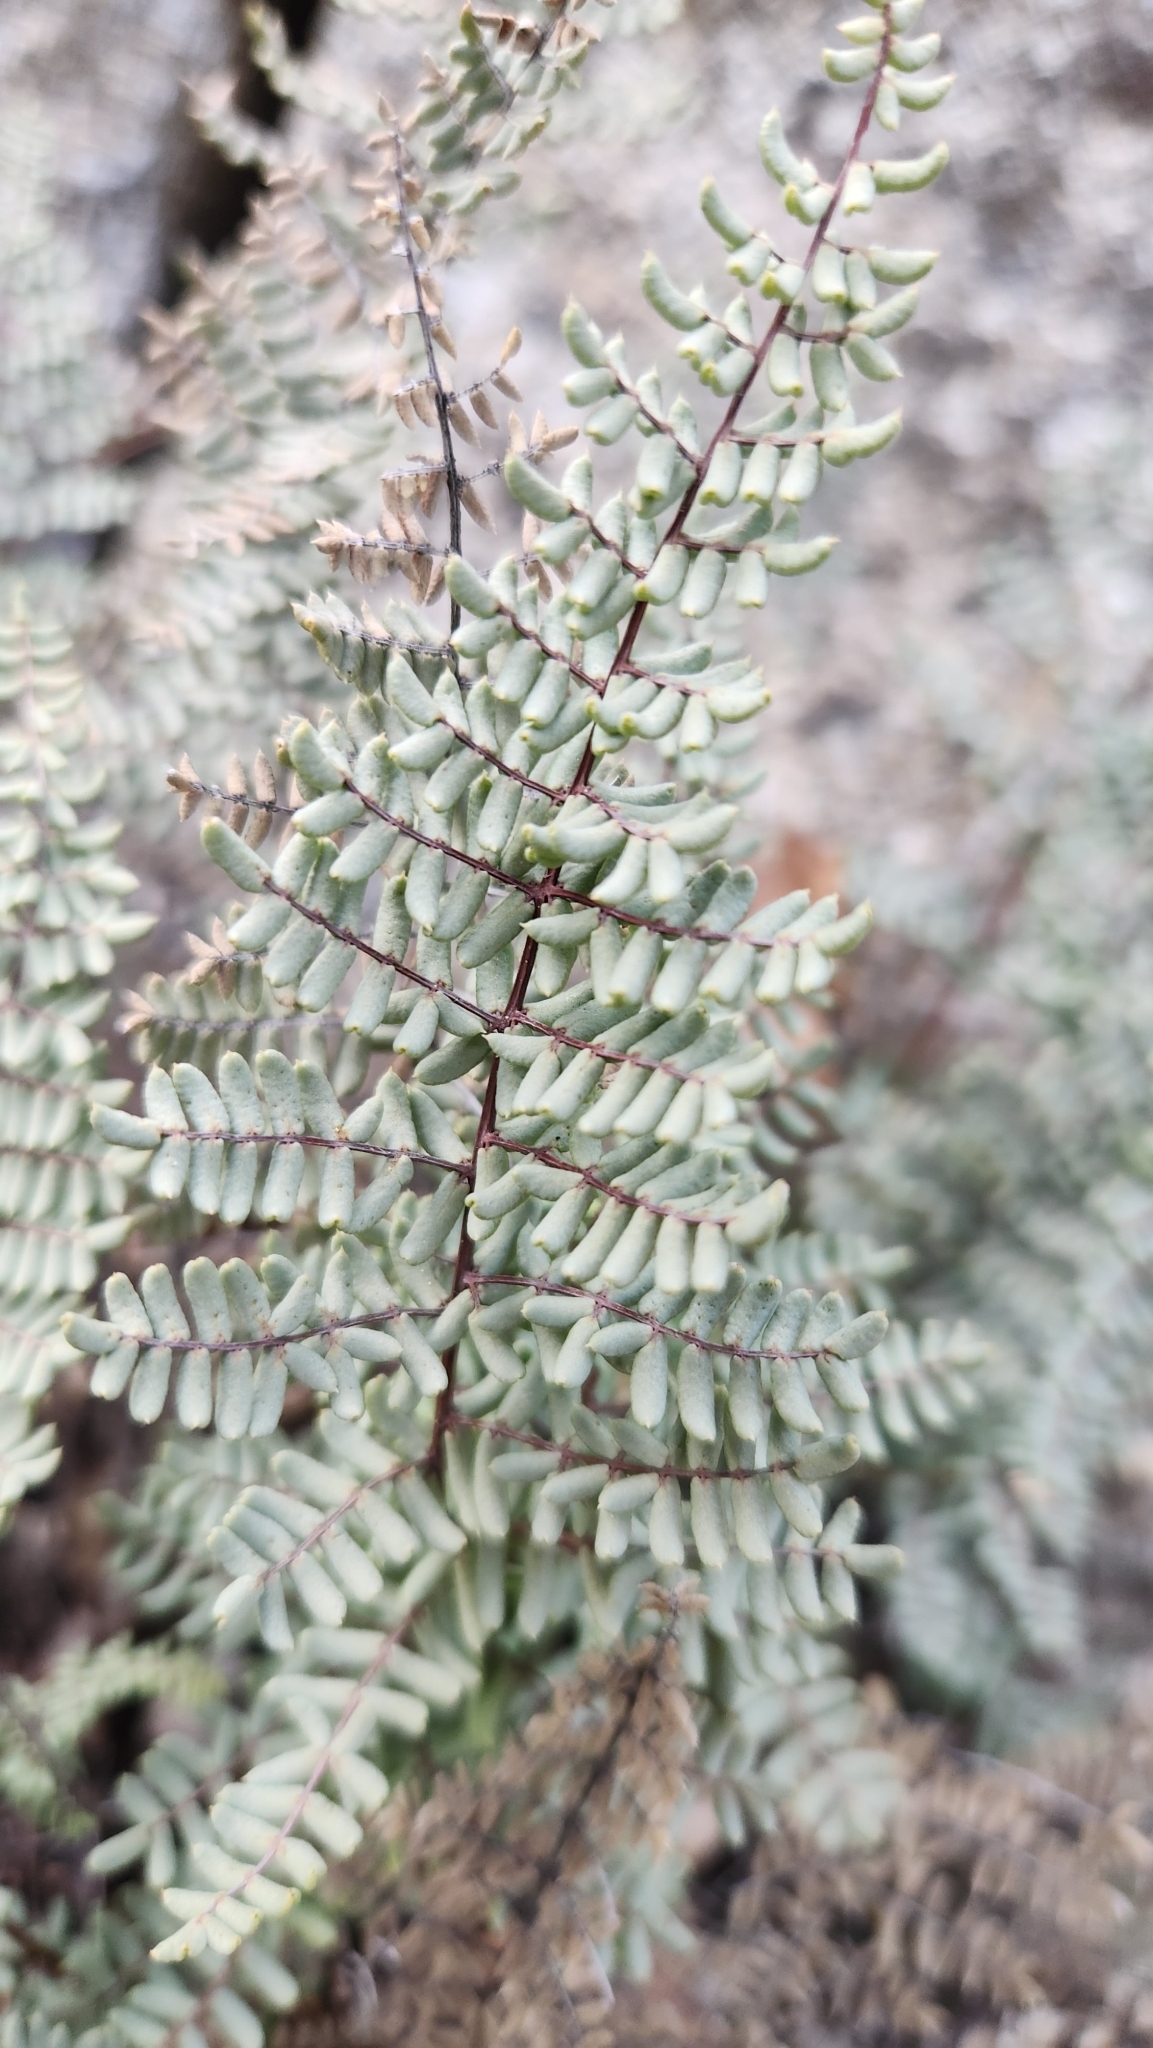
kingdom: Plantae
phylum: Tracheophyta
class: Polypodiopsida
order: Polypodiales
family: Pteridaceae
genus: Pellaea
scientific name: Pellaea mucronata
